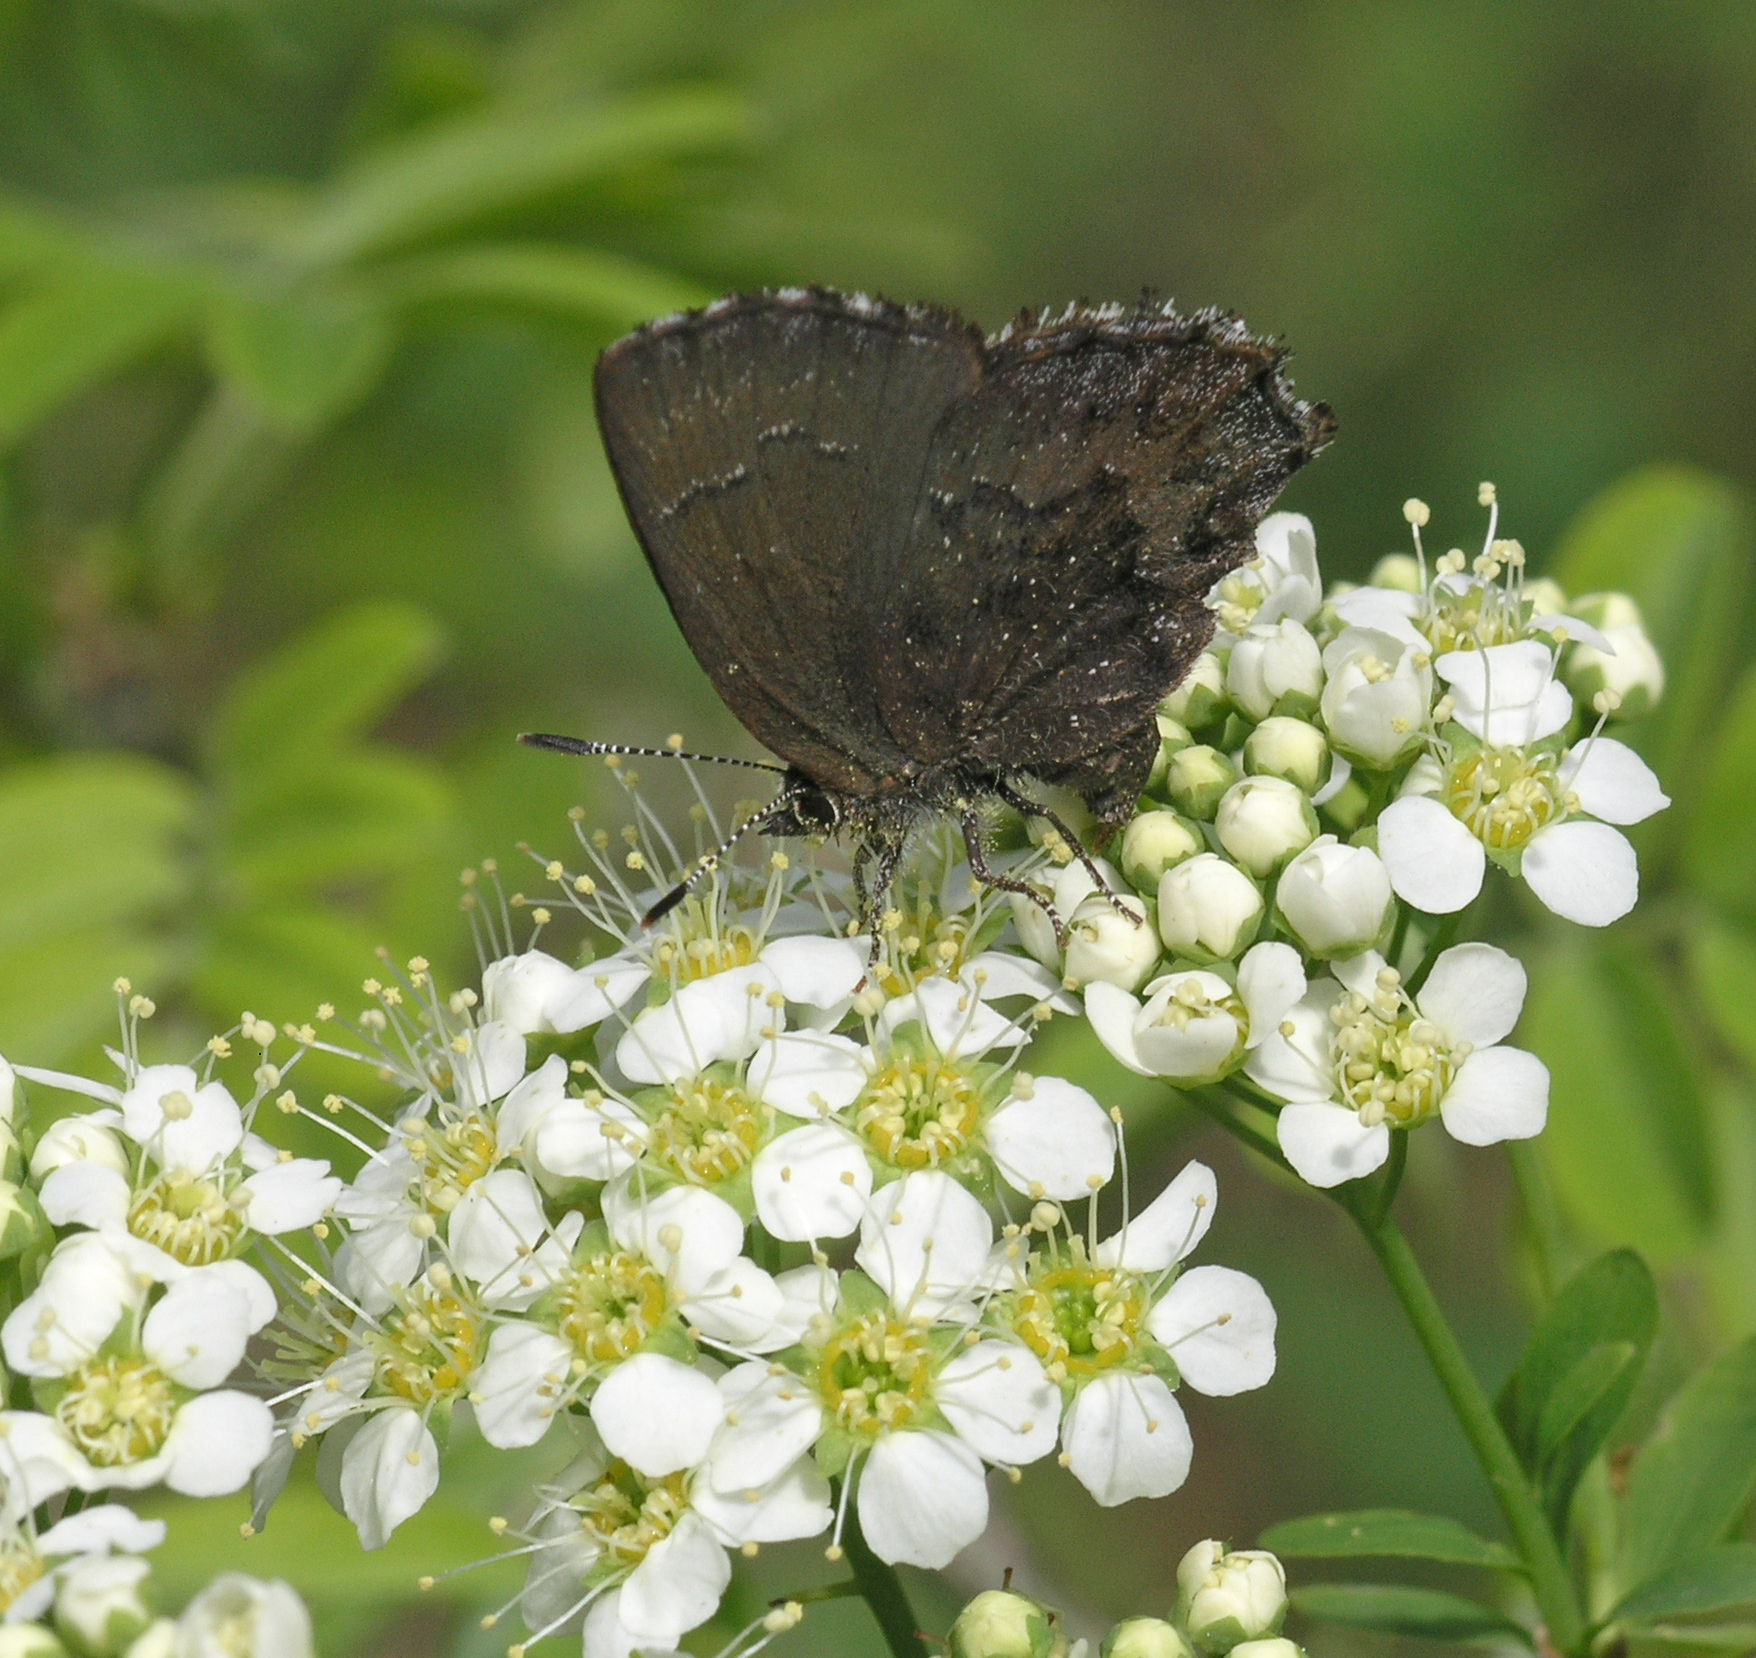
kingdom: Animalia
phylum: Arthropoda
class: Insecta
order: Lepidoptera
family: Lycaenidae
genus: Ginzia
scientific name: Ginzia Ahlbergia frivaldszkyi
